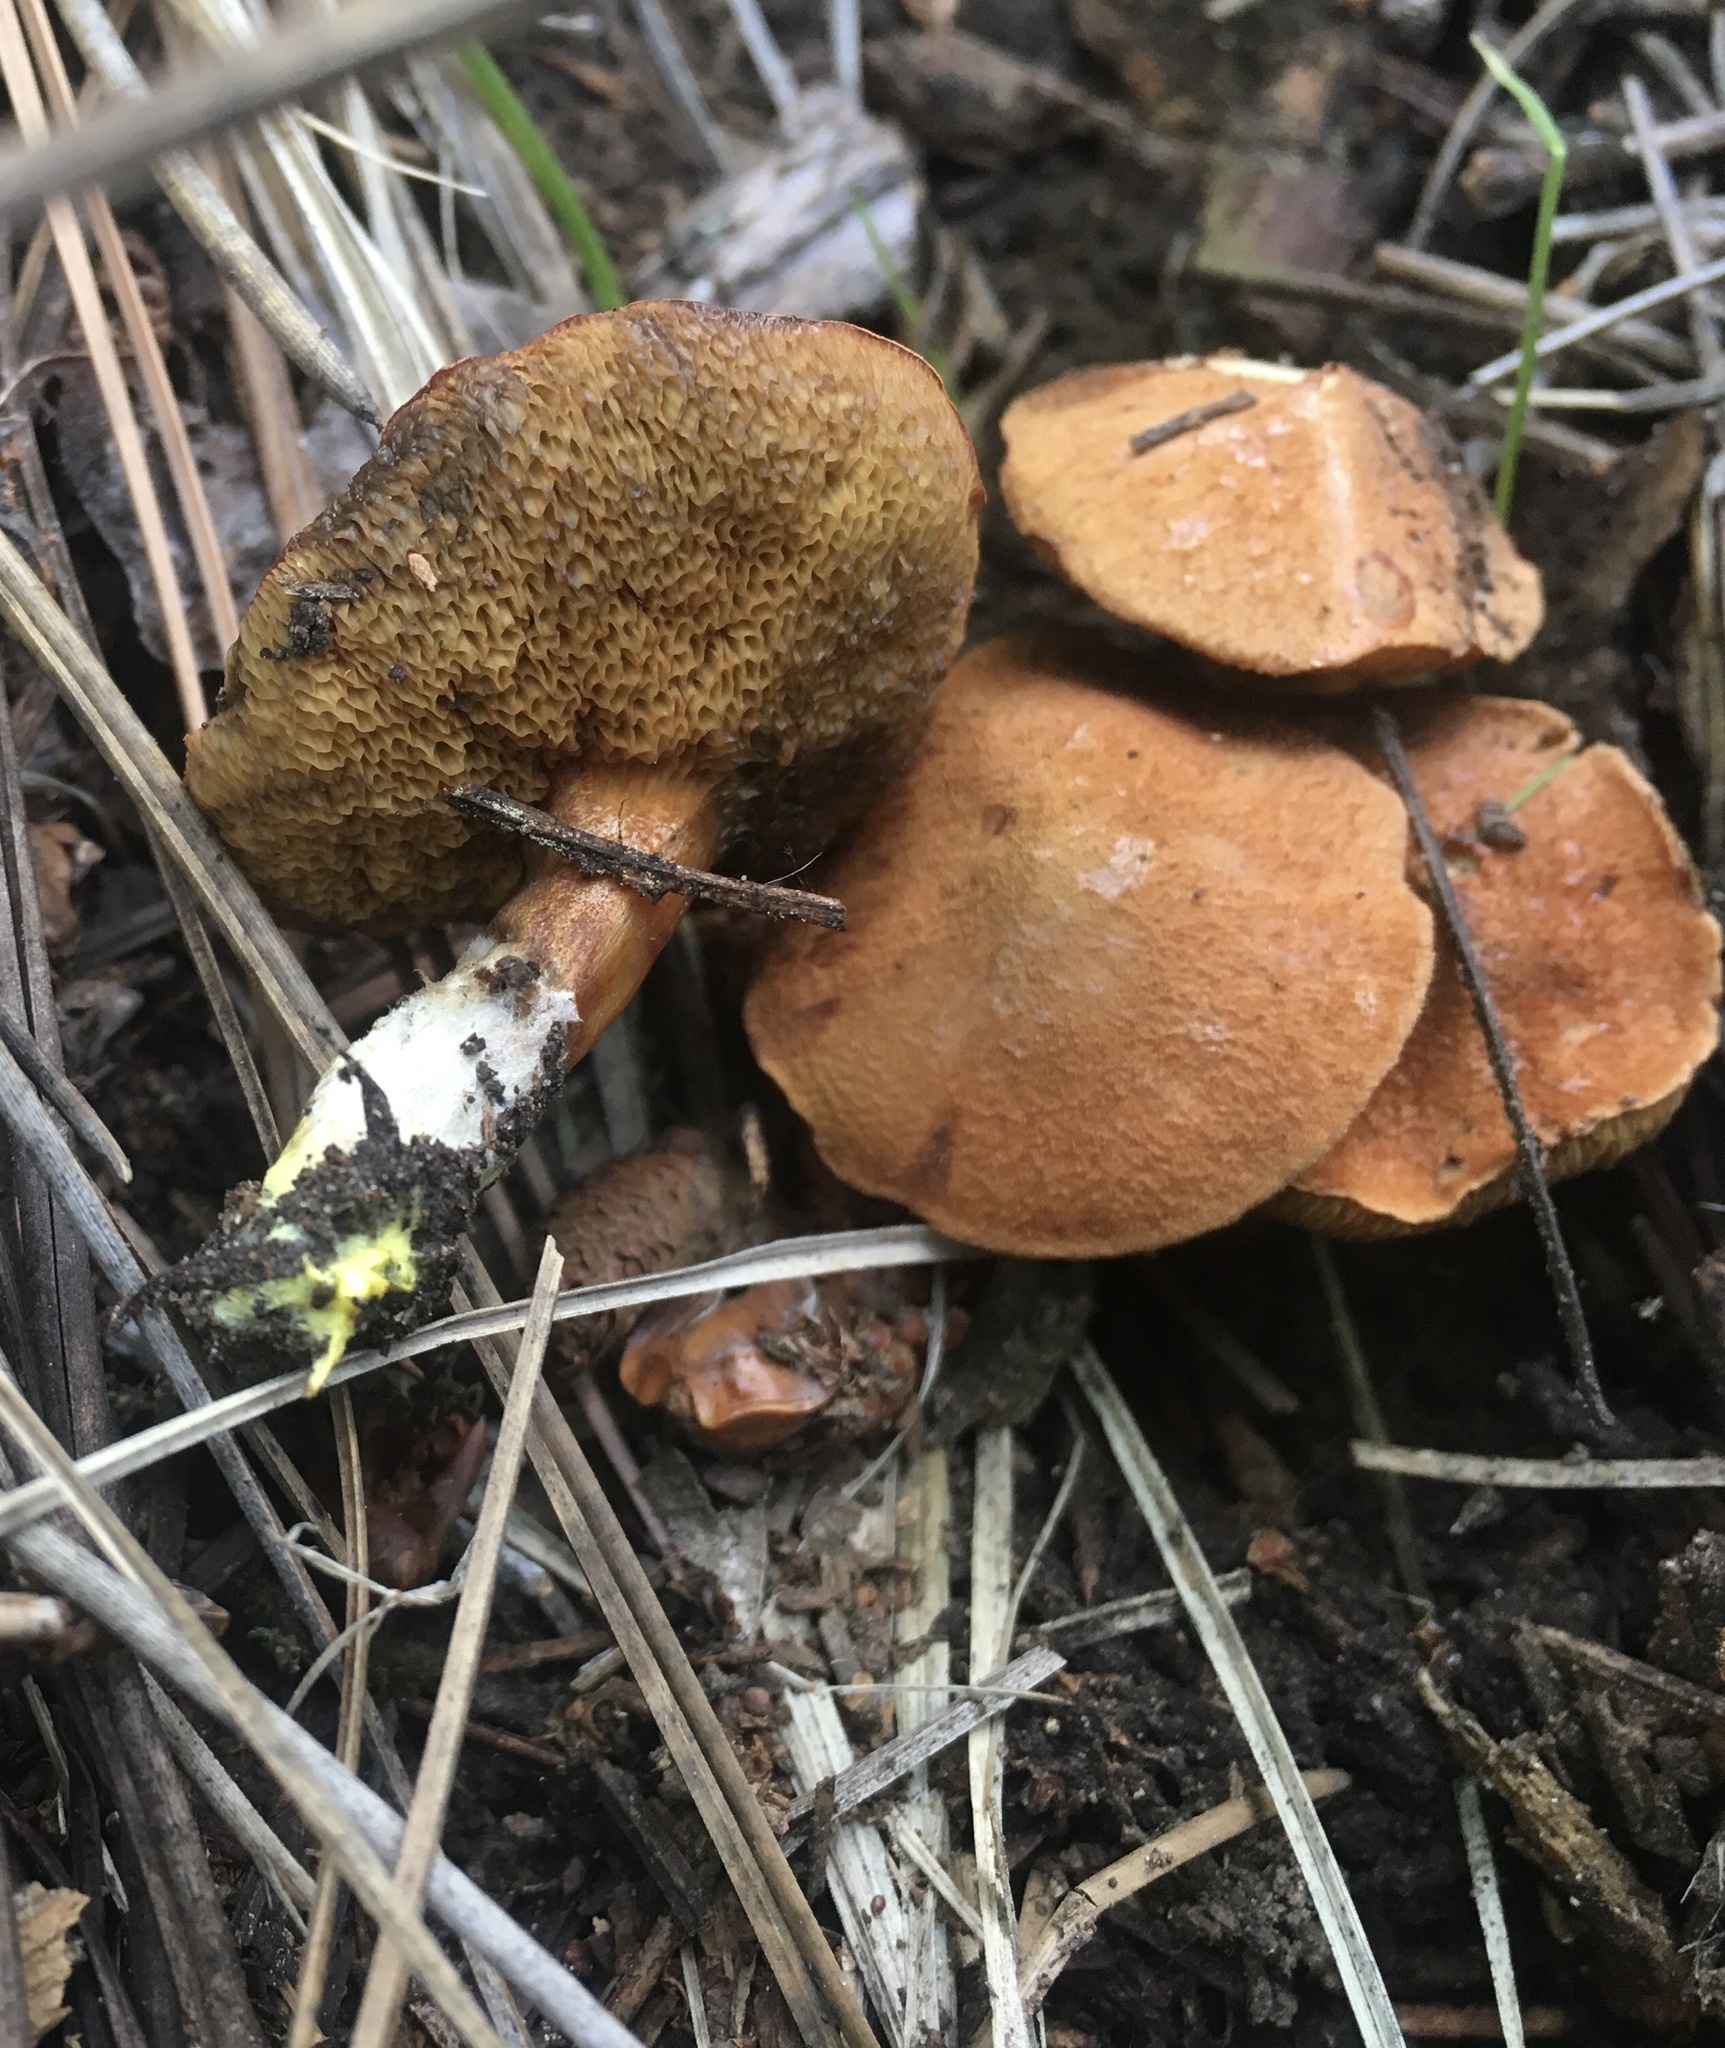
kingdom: Fungi
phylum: Basidiomycota
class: Agaricomycetes
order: Boletales
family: Boletaceae
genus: Chalciporus
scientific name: Chalciporus piperatoides
